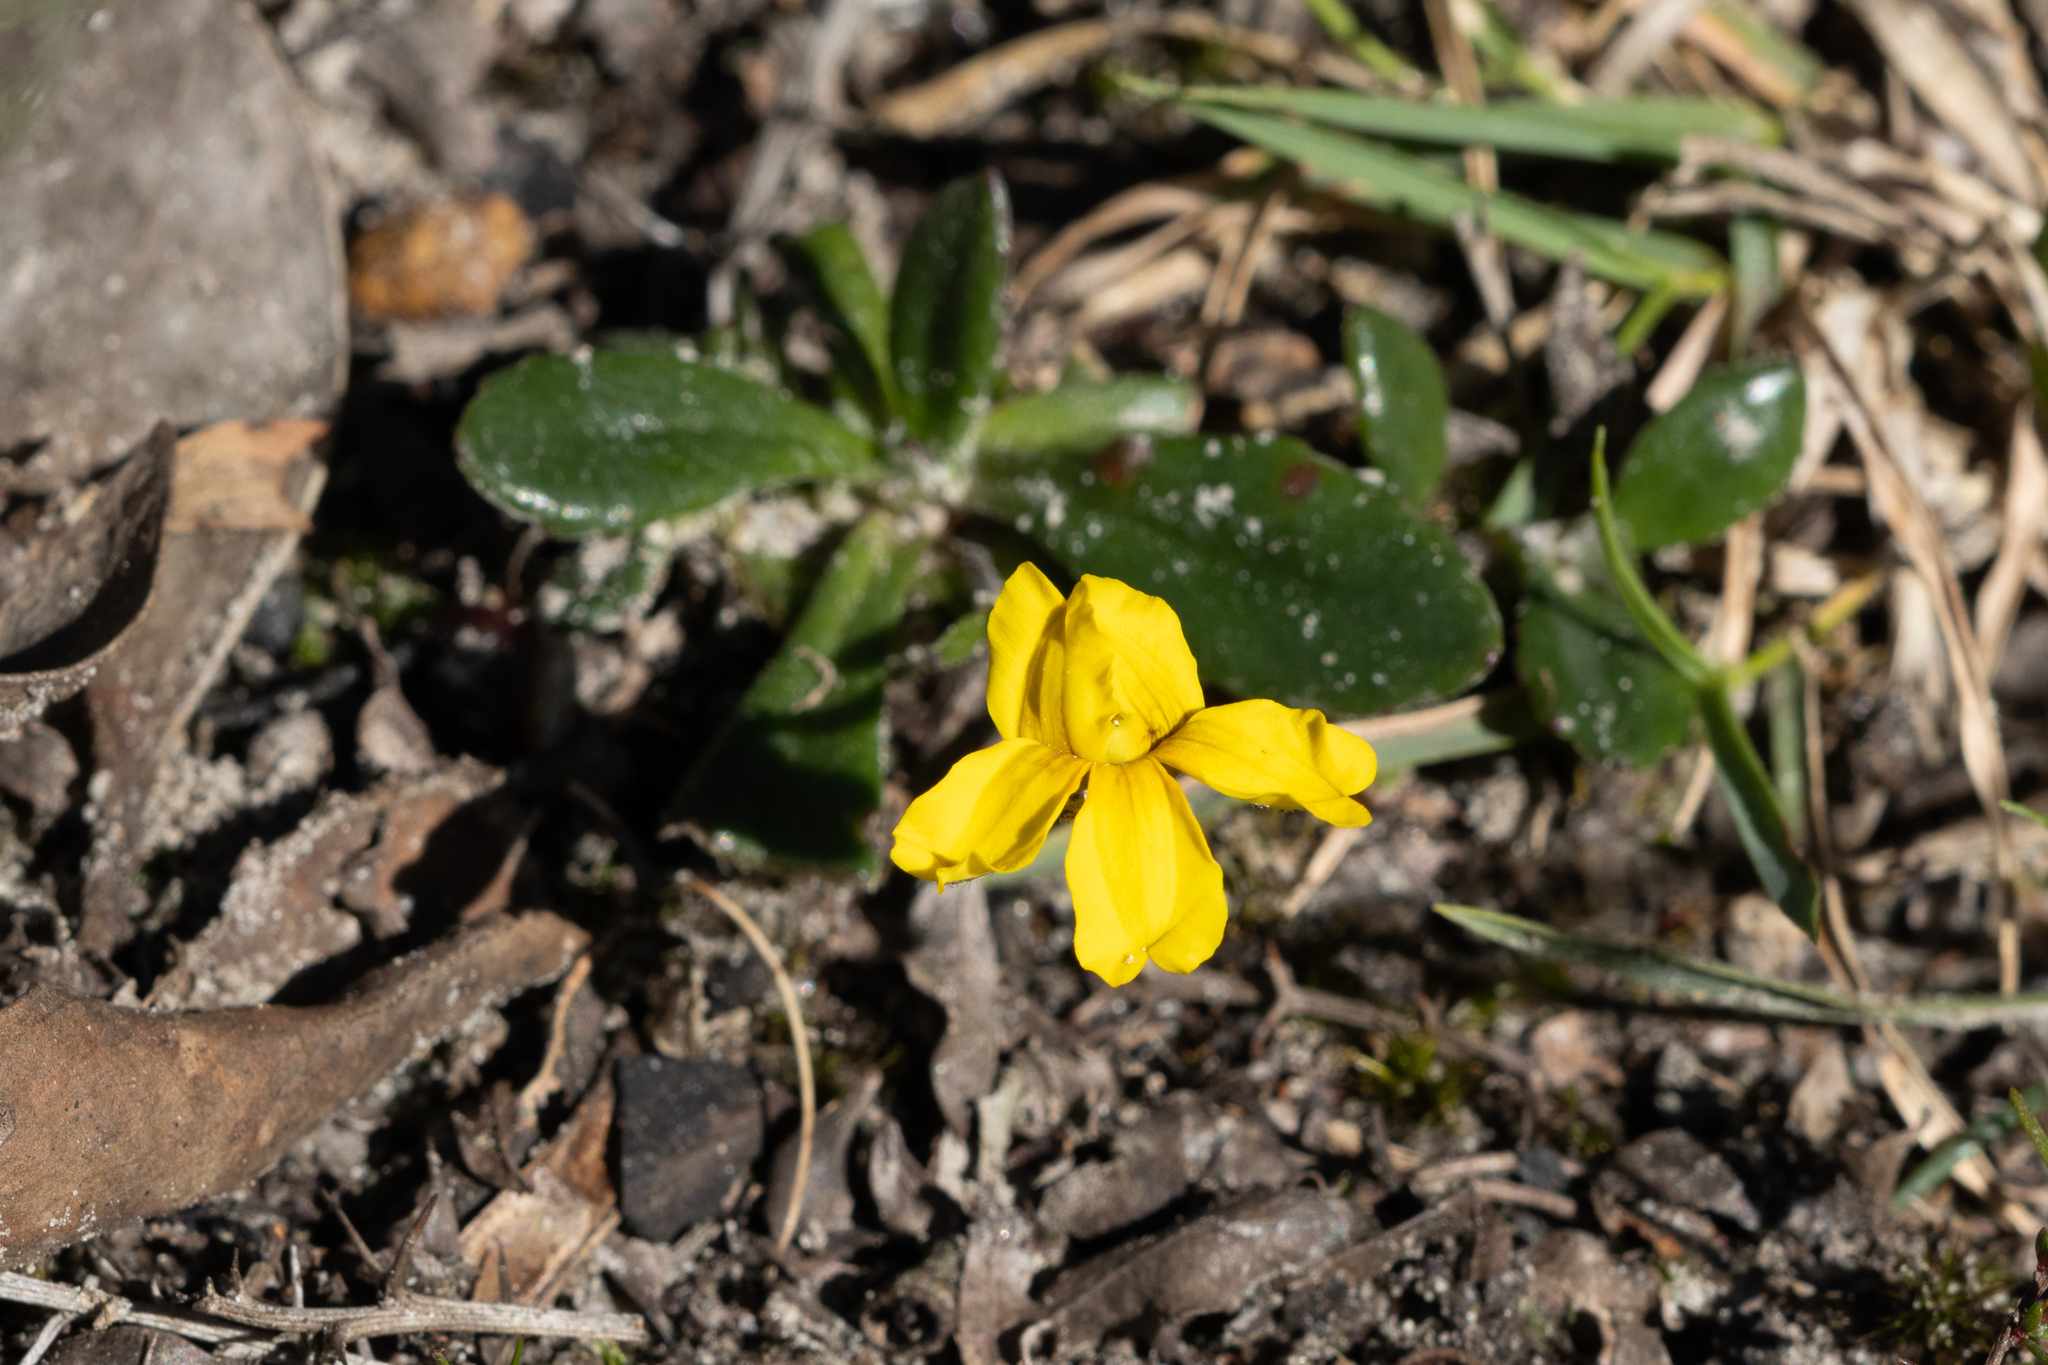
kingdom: Plantae
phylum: Tracheophyta
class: Magnoliopsida
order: Asterales
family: Goodeniaceae
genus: Goodenia
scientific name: Goodenia blackiana
